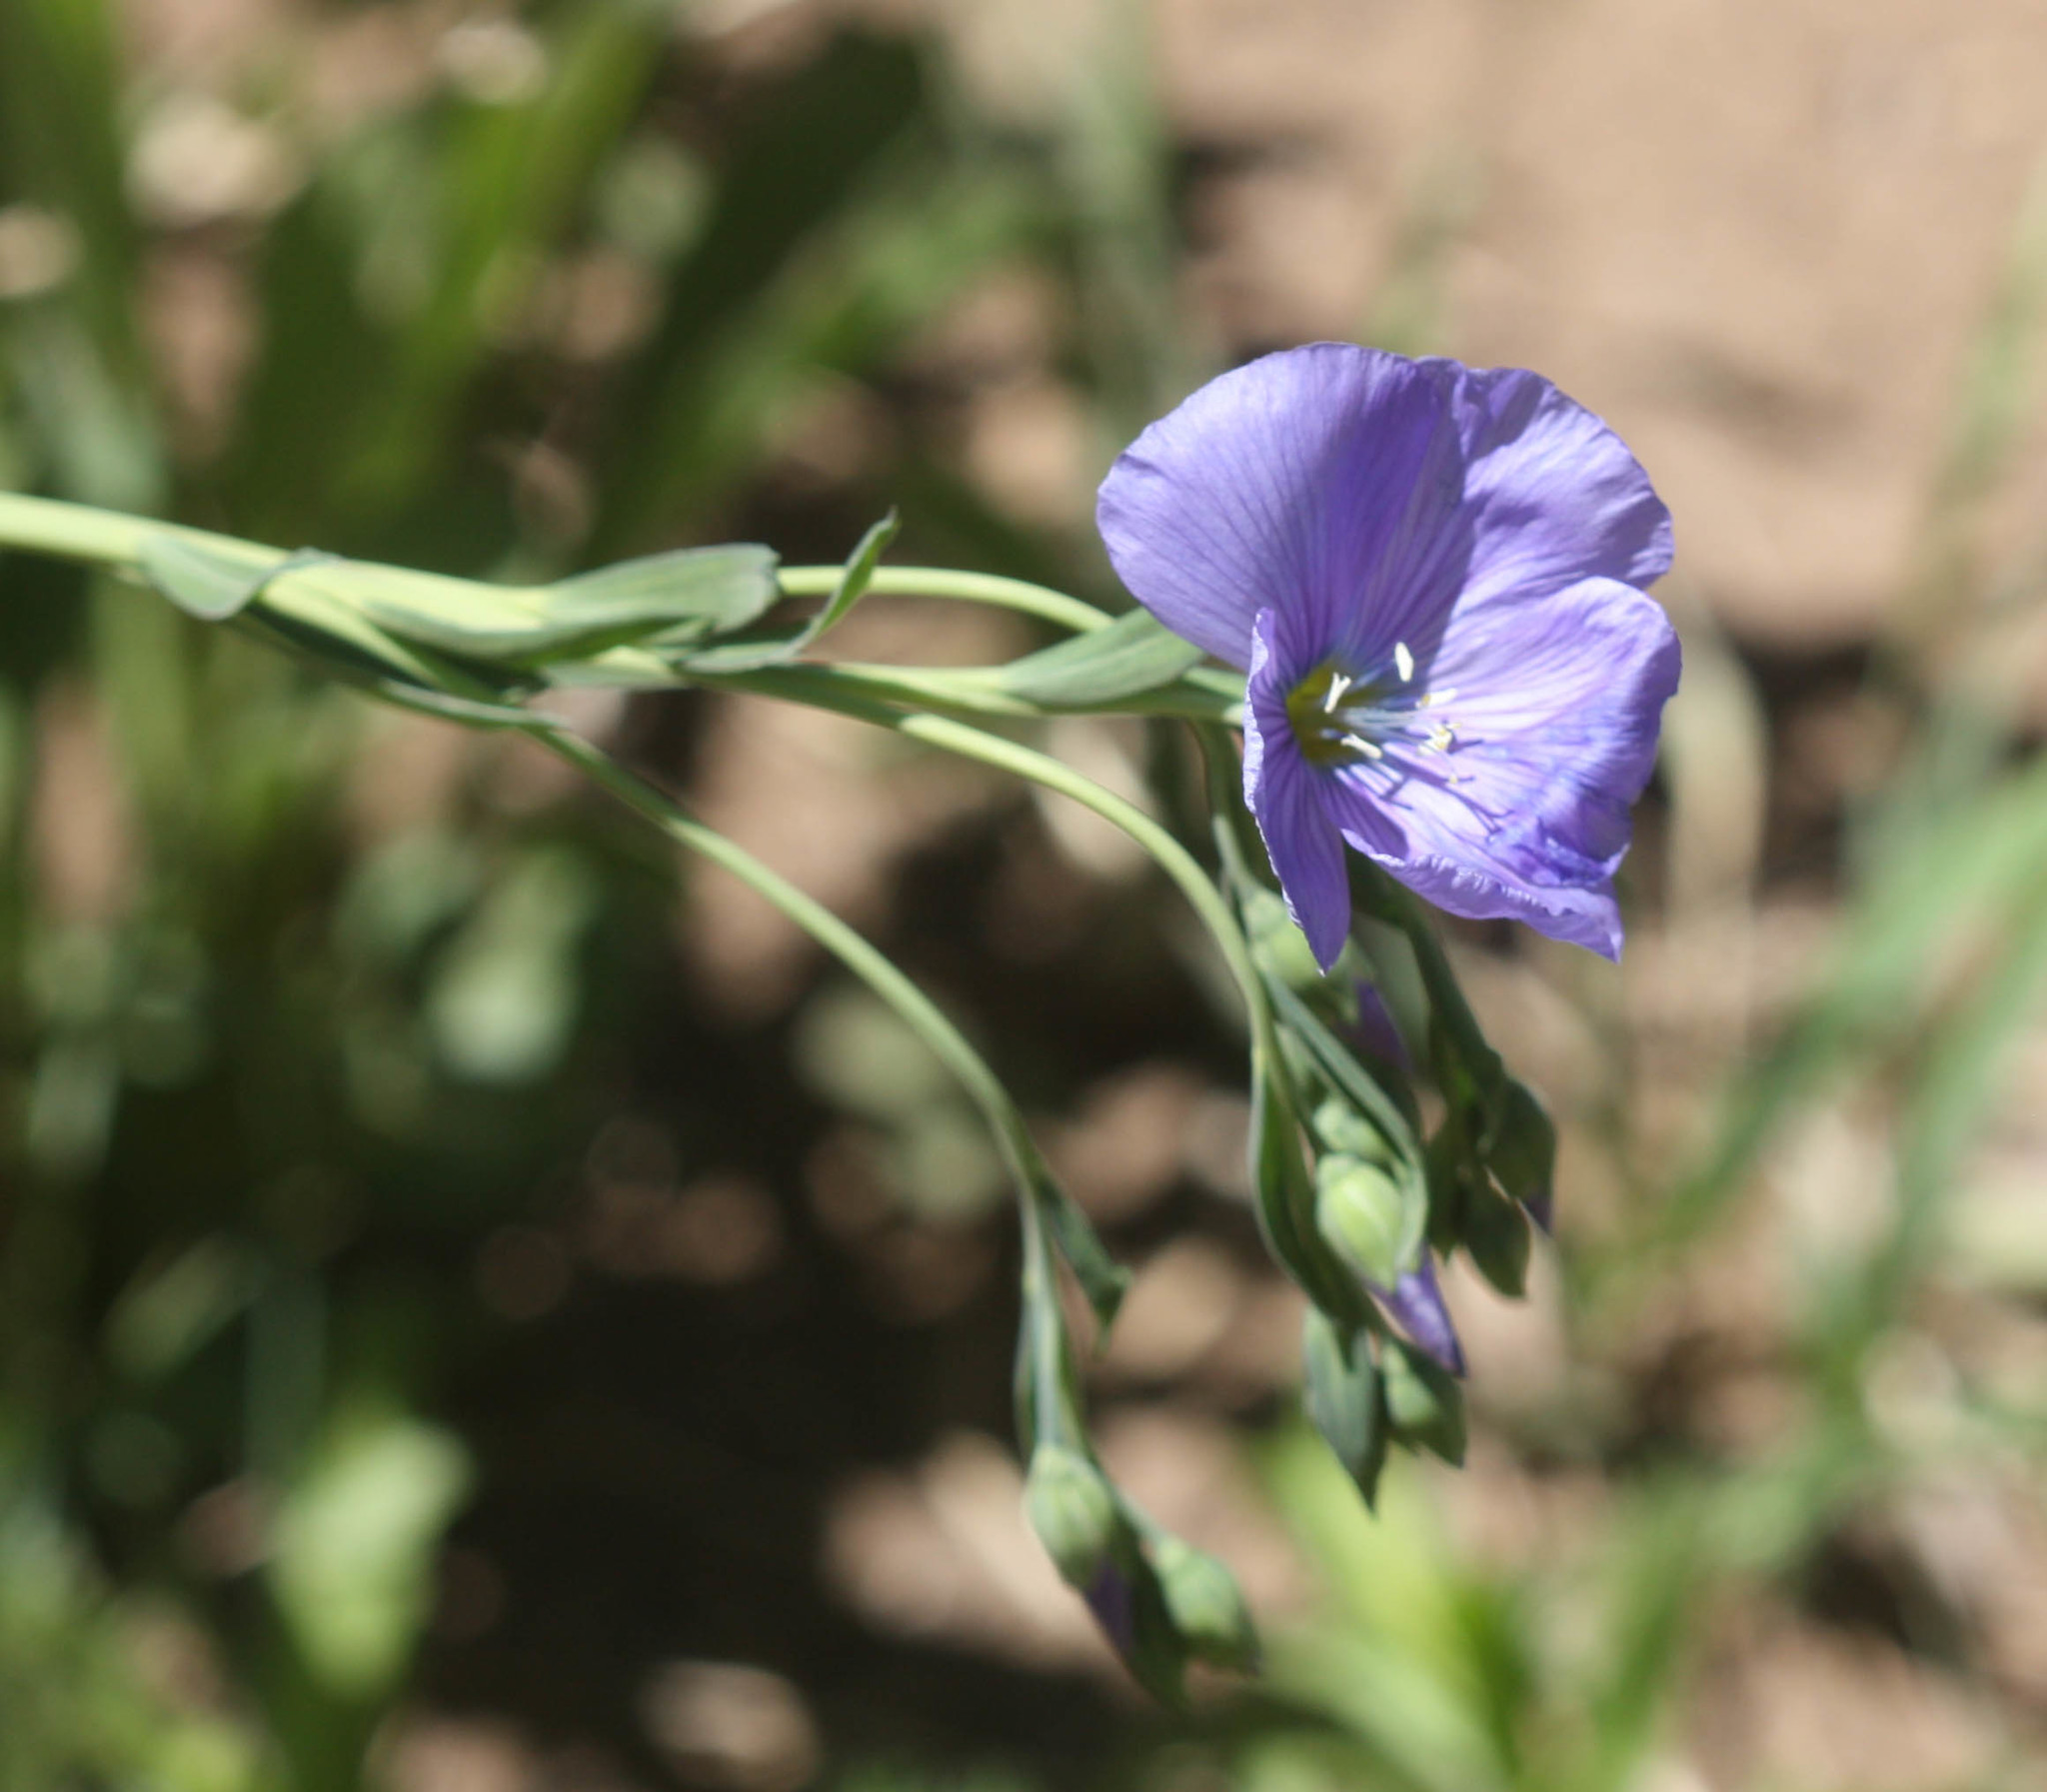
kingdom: Plantae
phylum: Tracheophyta
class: Magnoliopsida
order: Malpighiales
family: Linaceae
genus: Linum
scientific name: Linum lewisii
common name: Prairie flax
